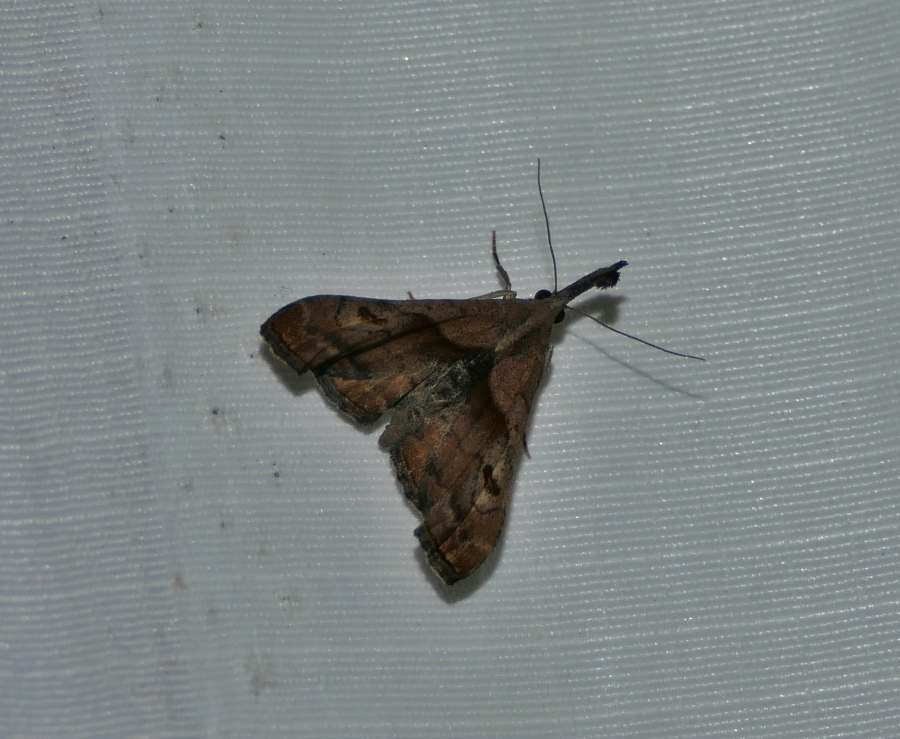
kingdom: Animalia
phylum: Arthropoda
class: Insecta
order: Lepidoptera
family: Erebidae
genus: Palthis
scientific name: Palthis angulalis
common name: Dark-spotted palthis moth
